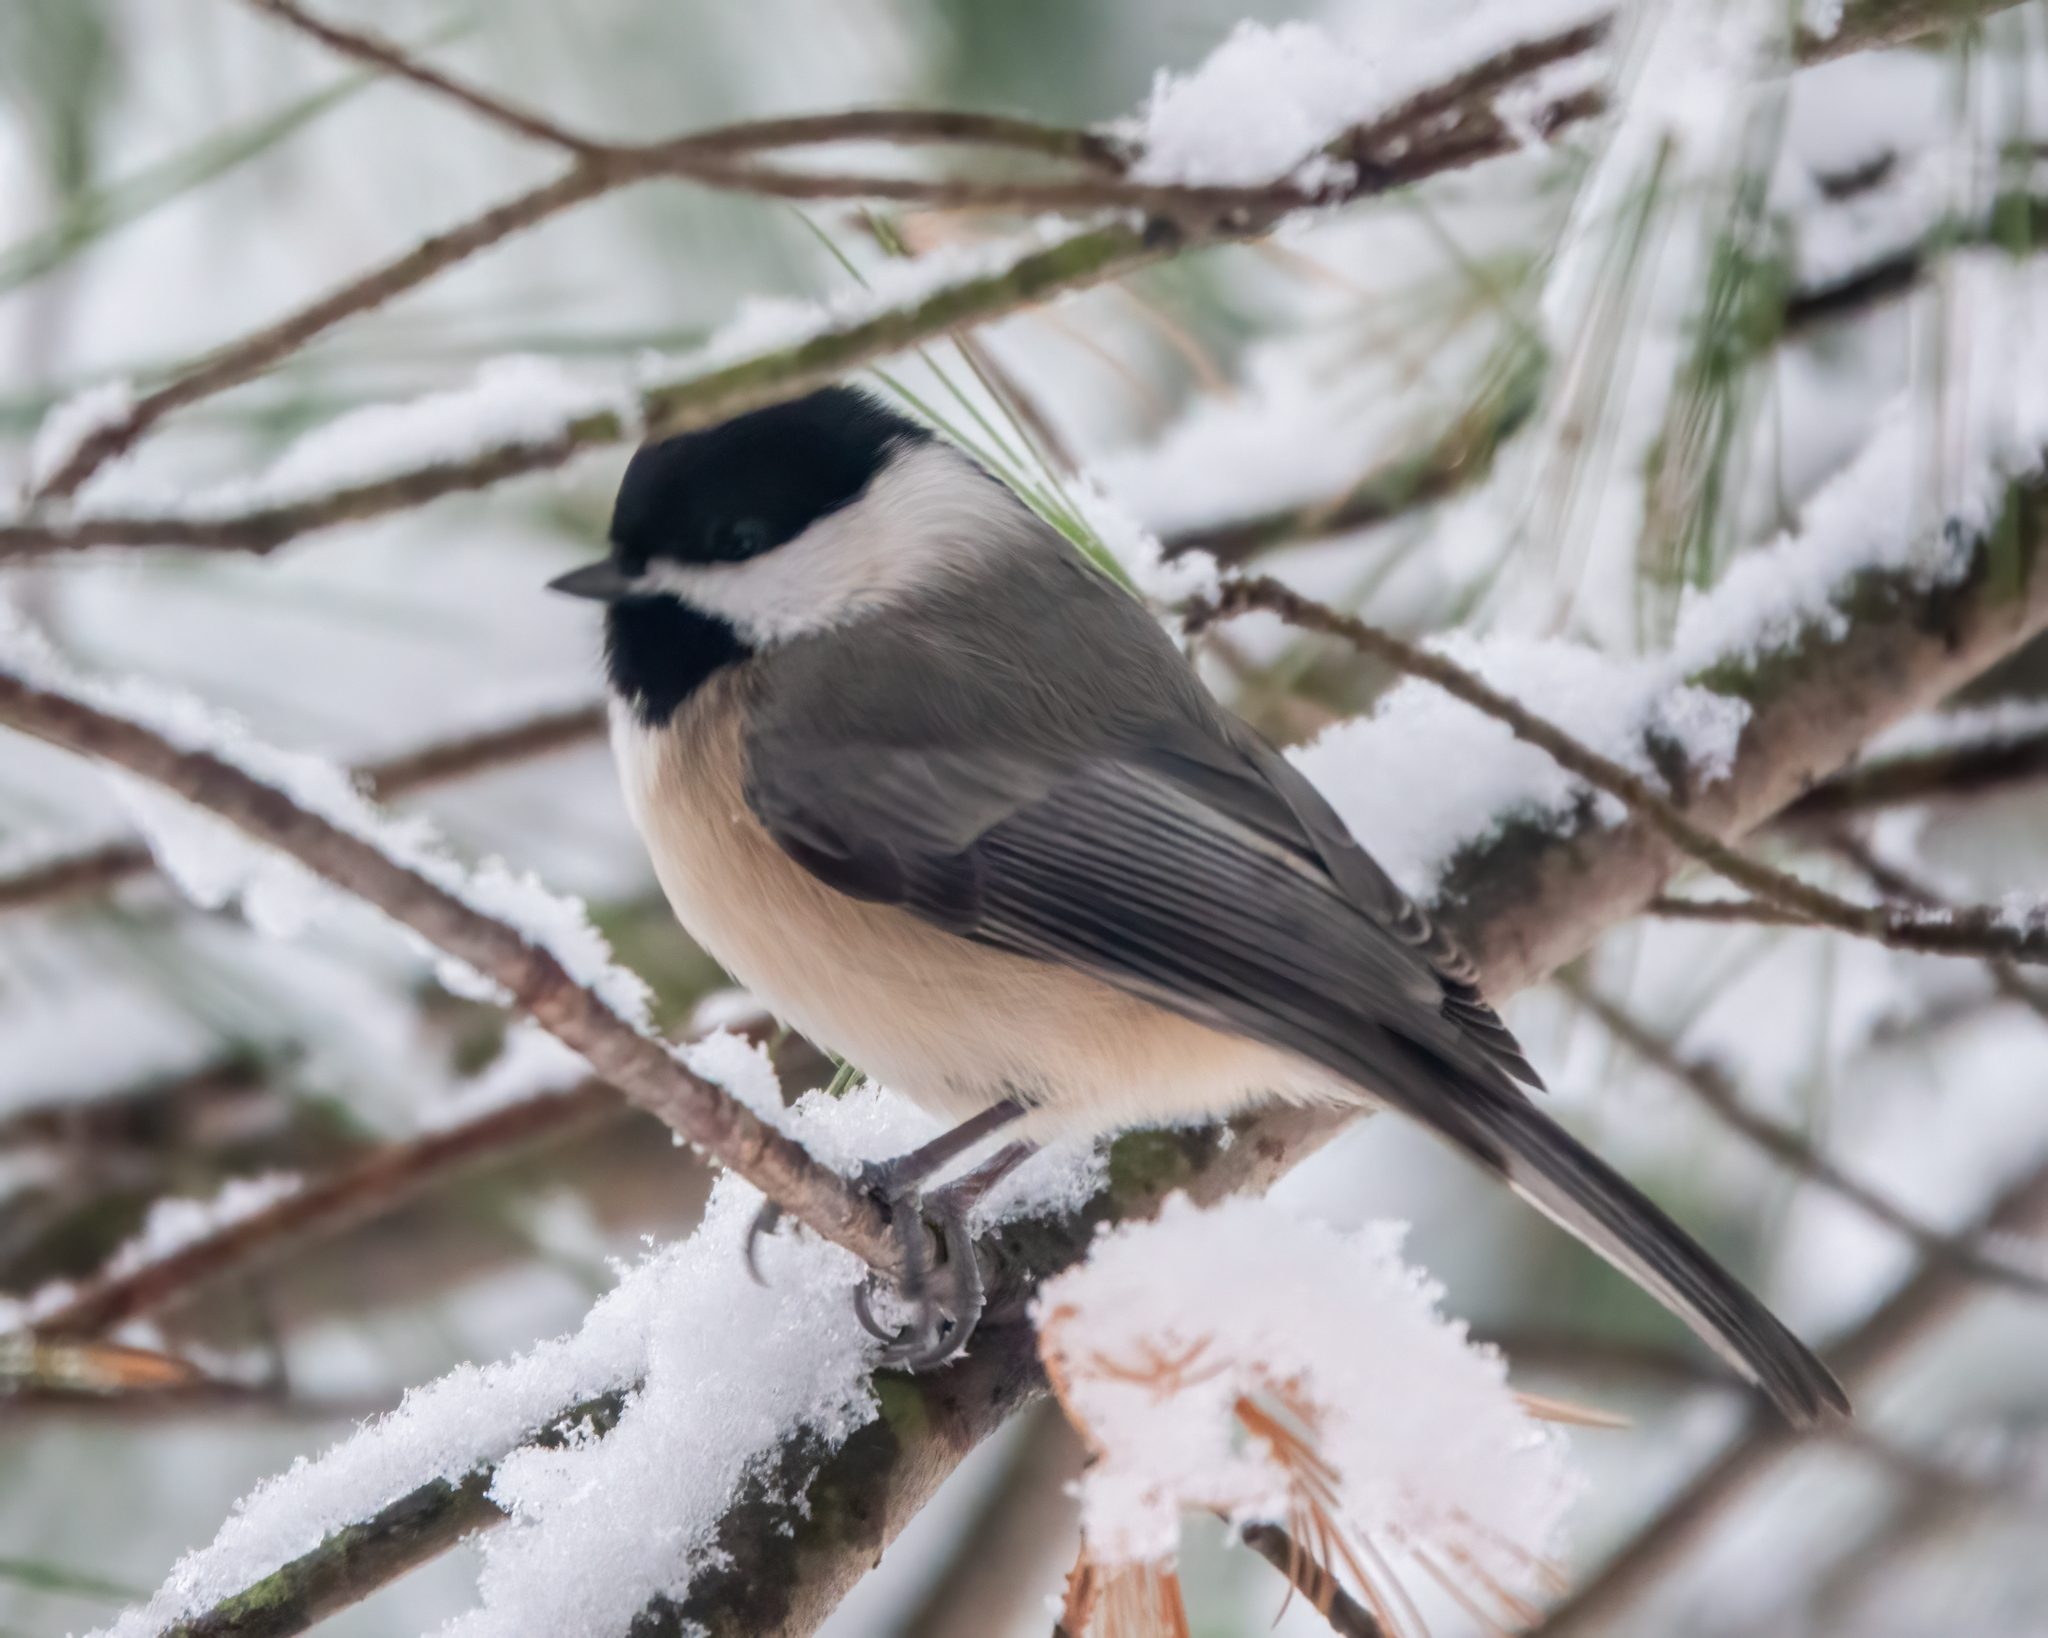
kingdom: Animalia
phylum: Chordata
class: Aves
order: Passeriformes
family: Paridae
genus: Poecile
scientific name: Poecile carolinensis
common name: Carolina chickadee
